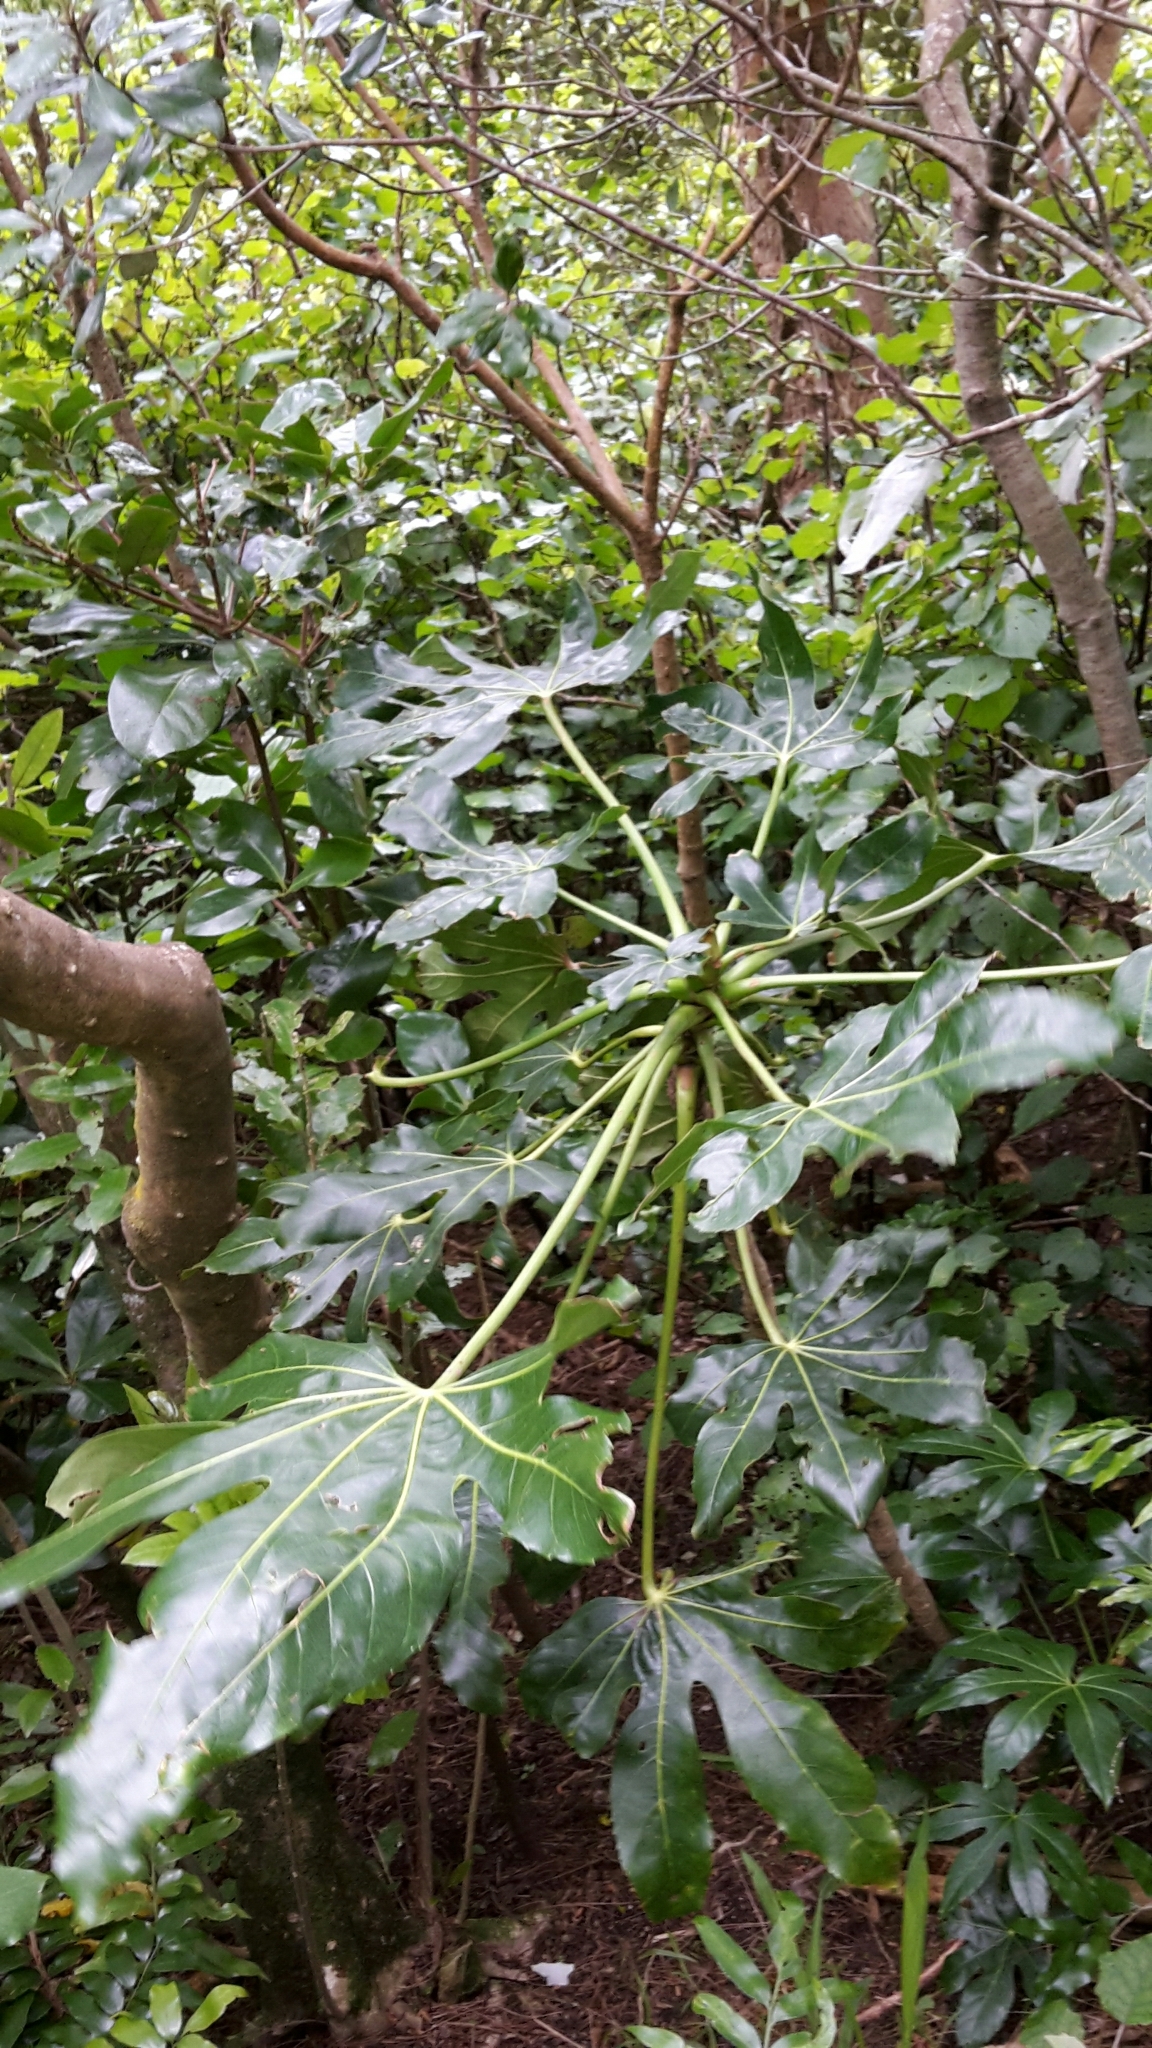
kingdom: Plantae
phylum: Tracheophyta
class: Magnoliopsida
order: Apiales
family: Araliaceae
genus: Fatsia
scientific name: Fatsia japonica
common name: Fatsia
